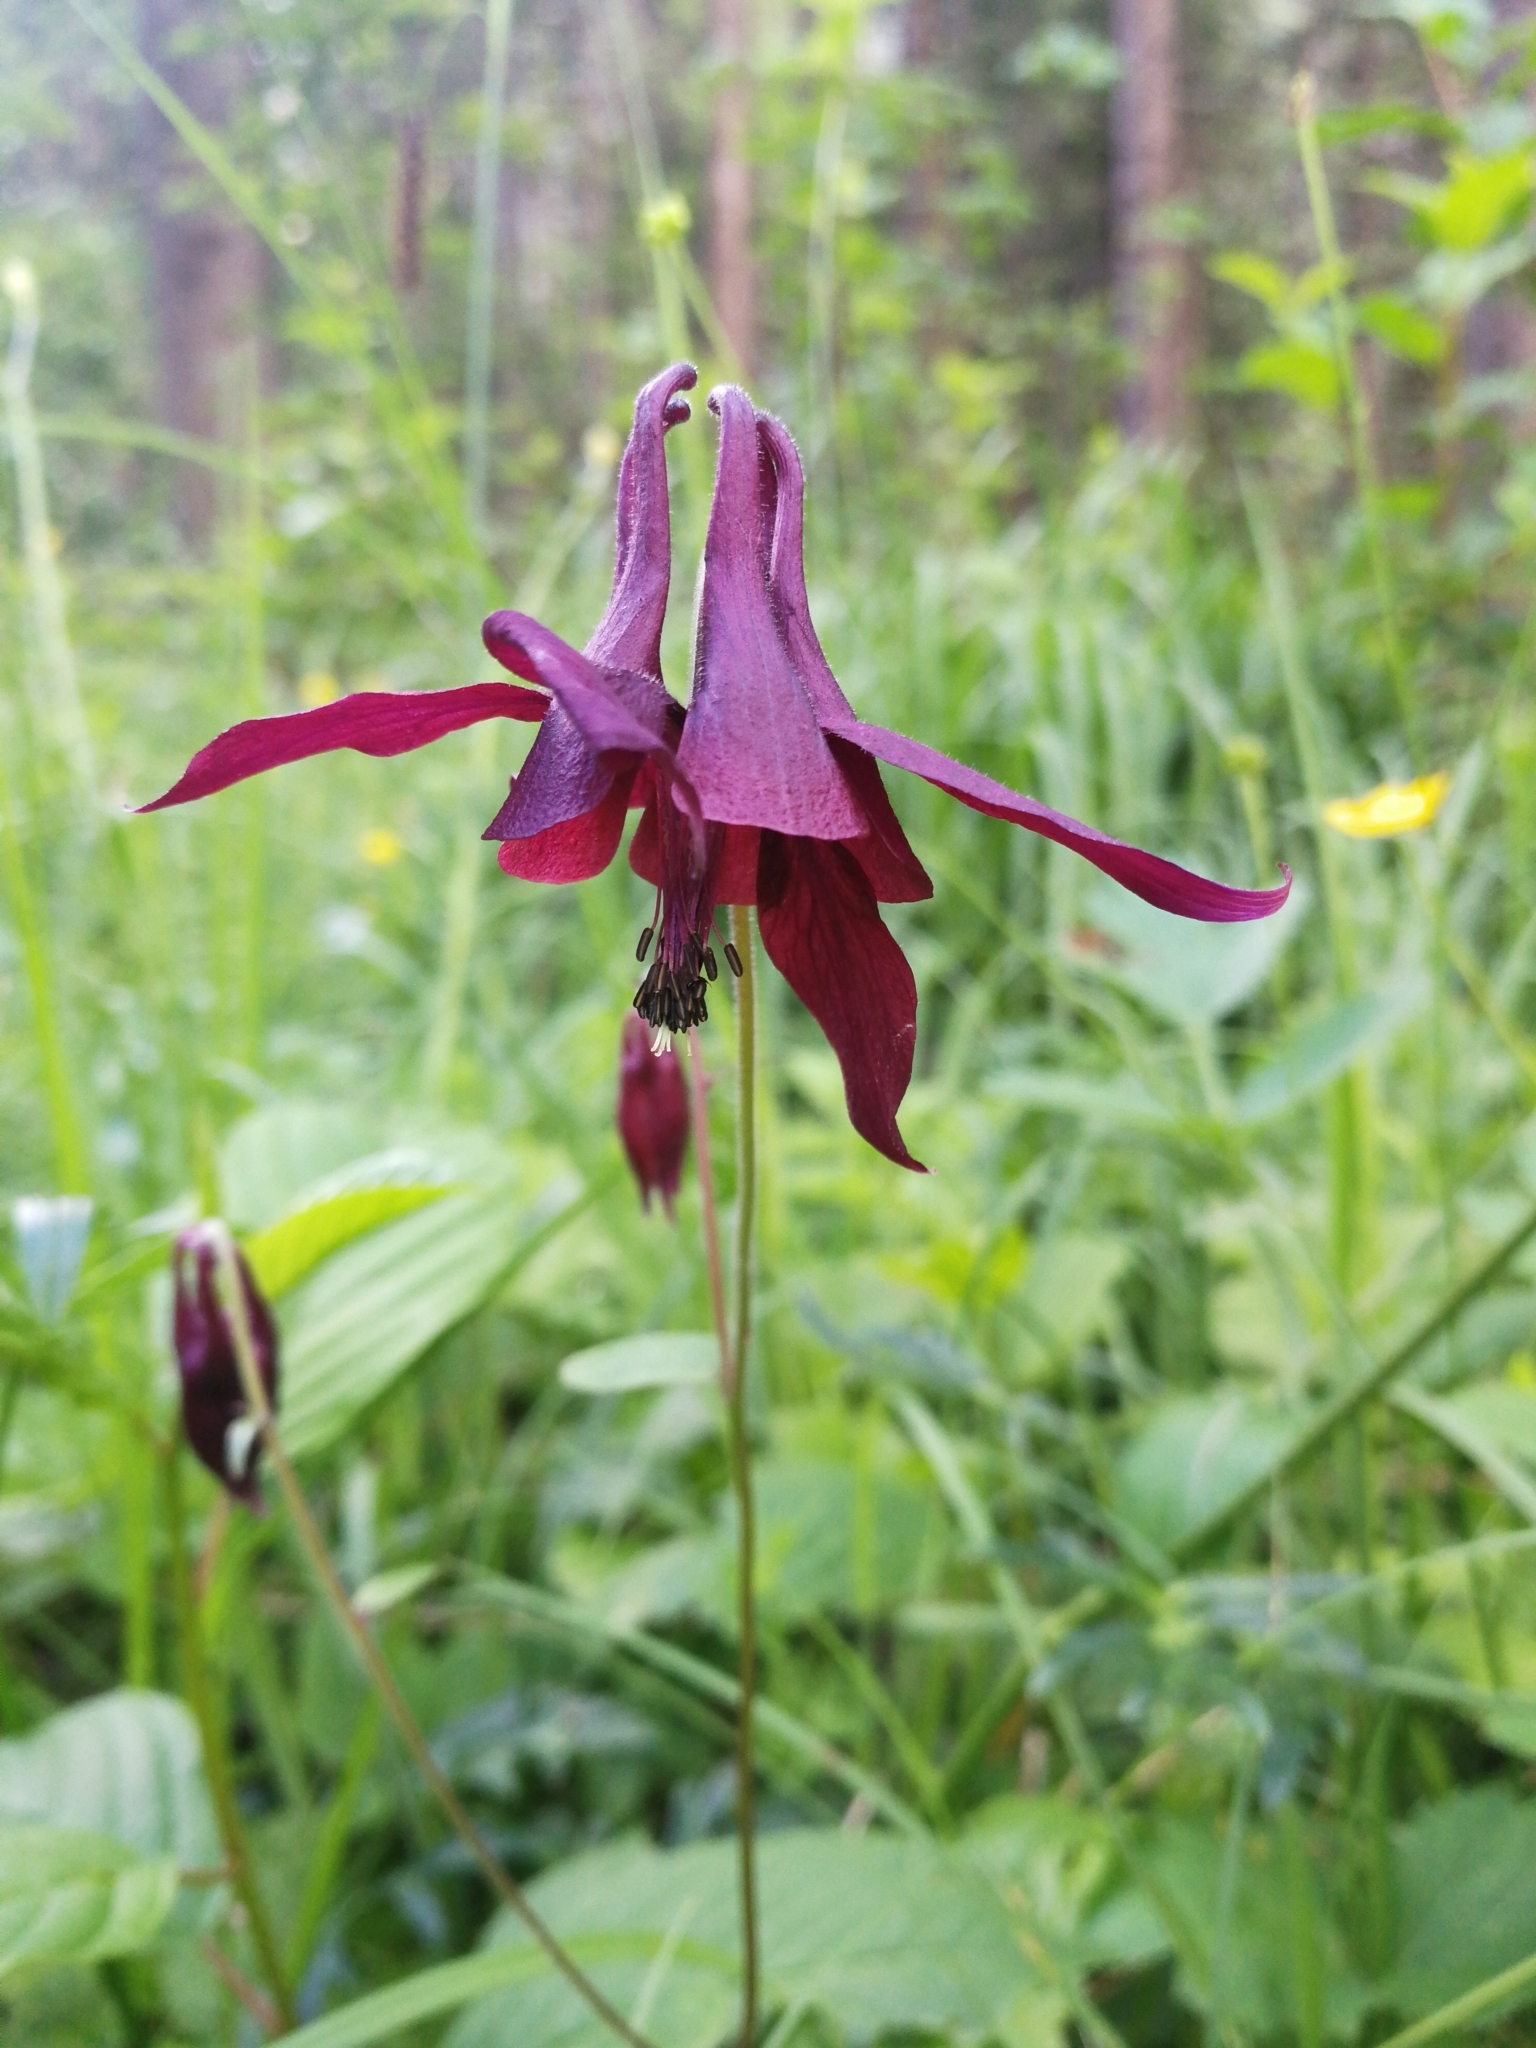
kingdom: Plantae
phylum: Tracheophyta
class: Magnoliopsida
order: Ranunculales
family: Ranunculaceae
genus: Aquilegia
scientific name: Aquilegia atrata
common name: Dark columbine
